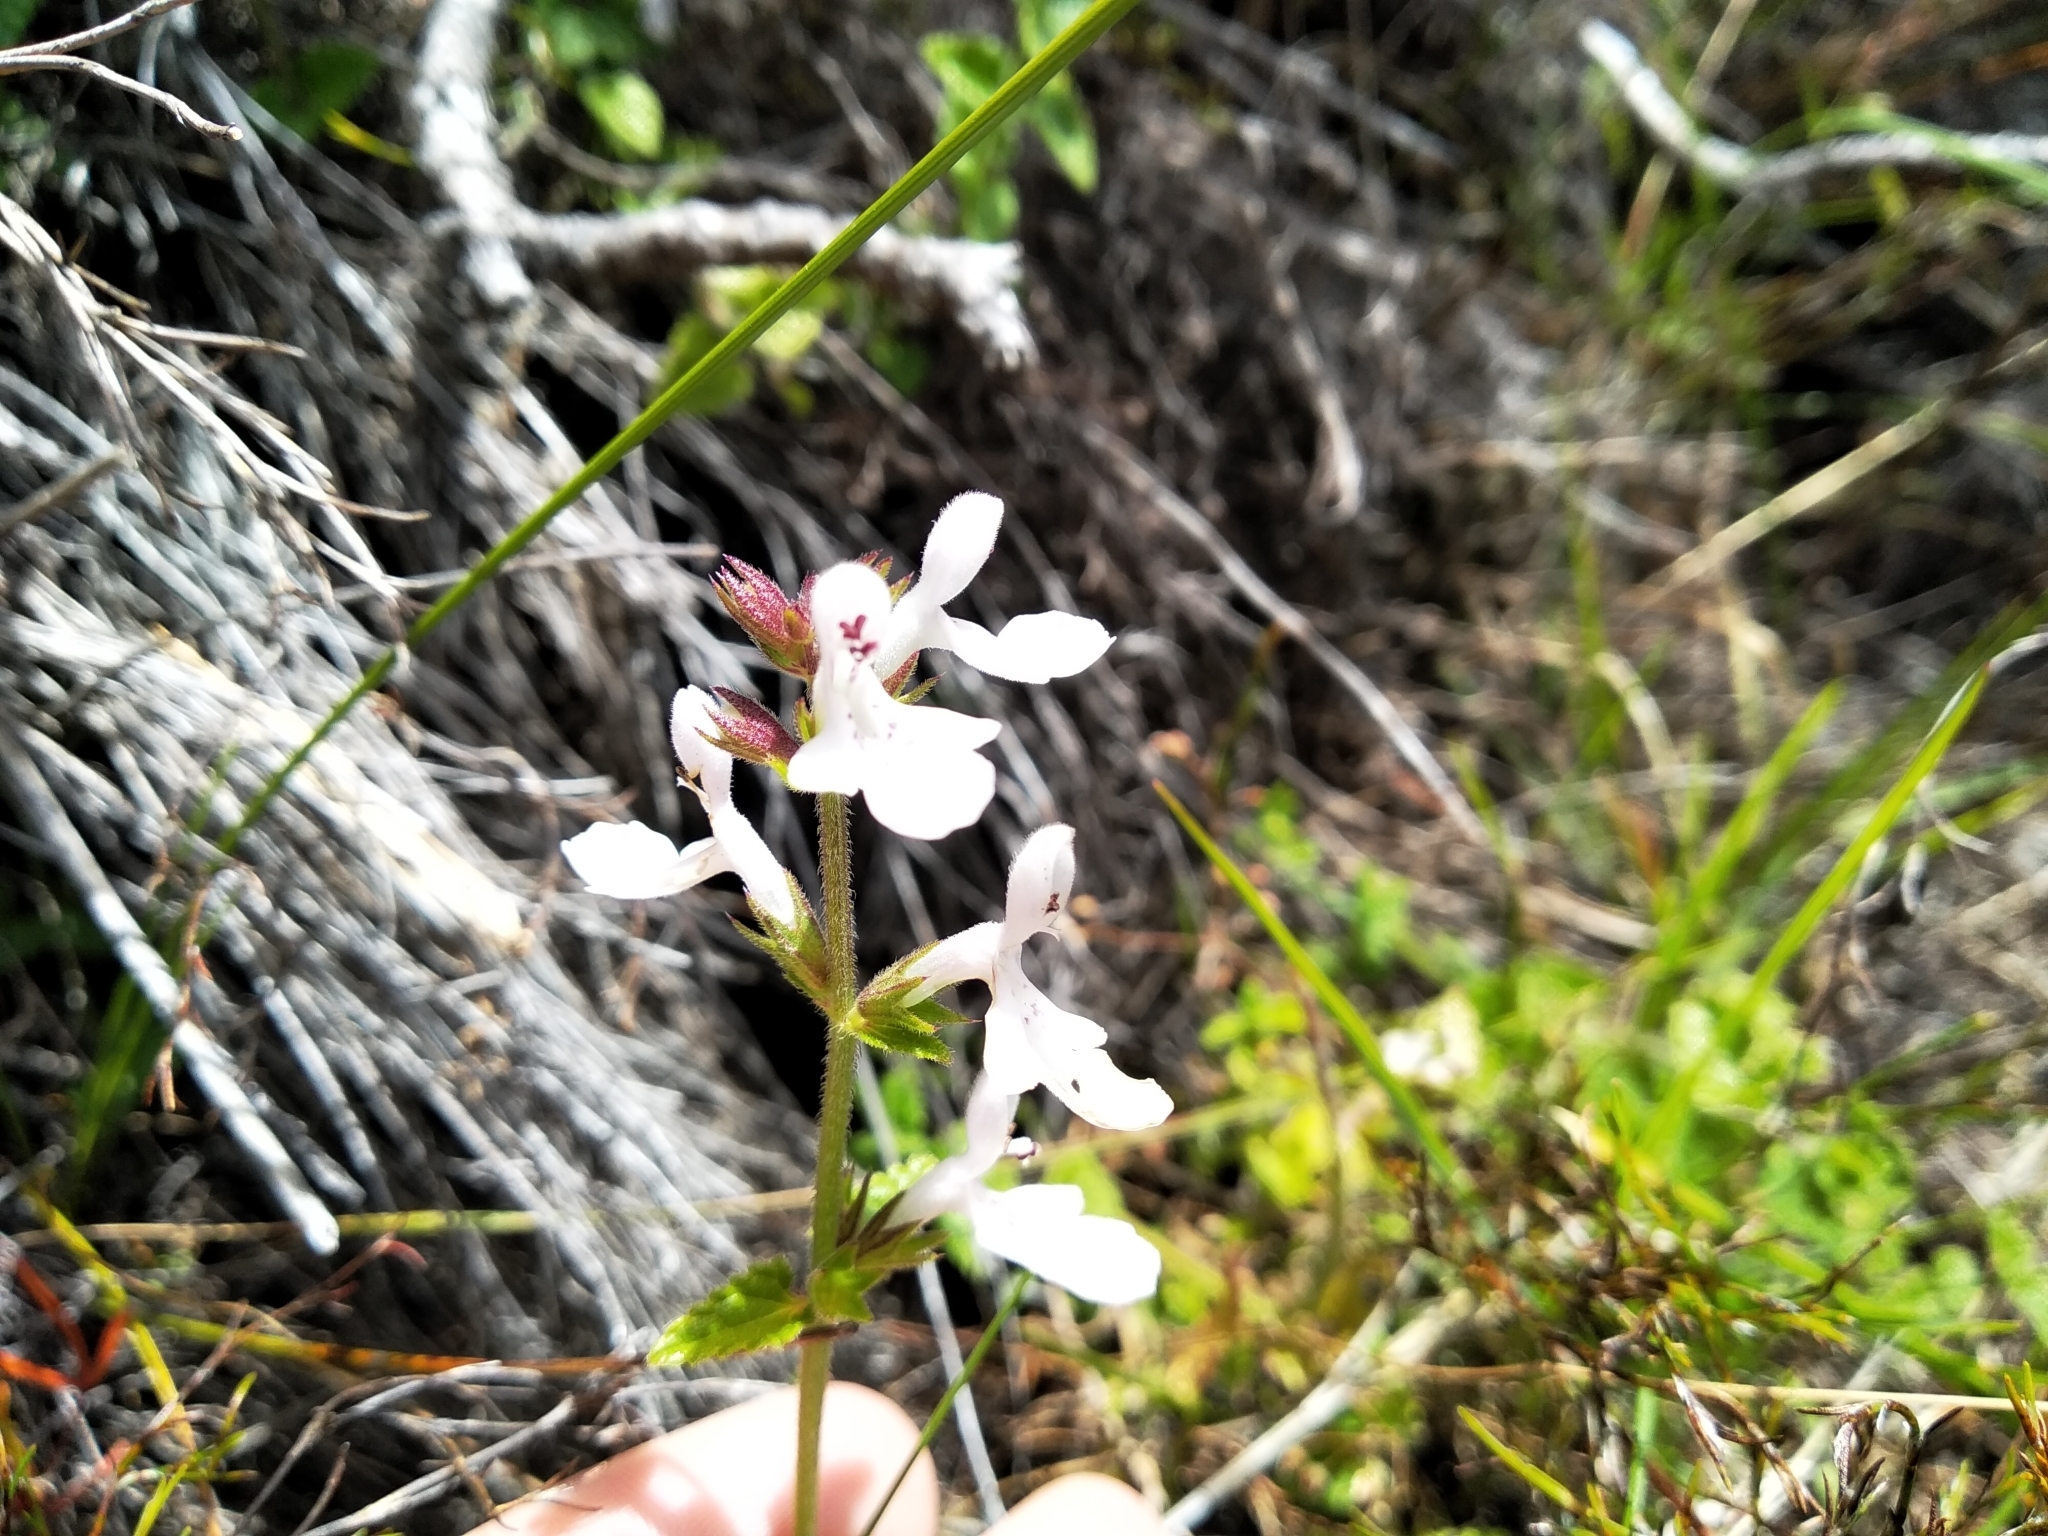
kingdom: Plantae
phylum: Tracheophyta
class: Magnoliopsida
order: Lamiales
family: Lamiaceae
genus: Stachys
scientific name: Stachys aethiopica
